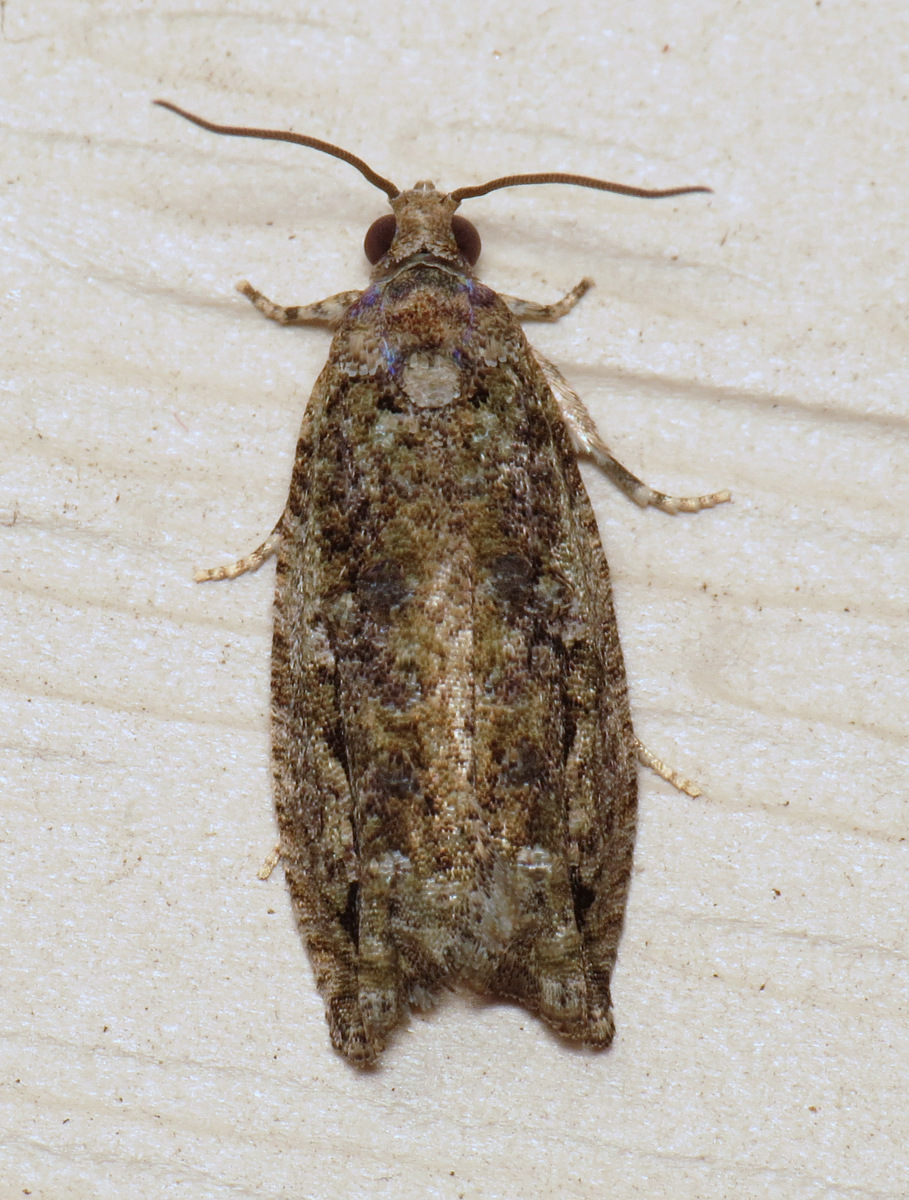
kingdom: Animalia
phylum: Arthropoda
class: Insecta
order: Lepidoptera
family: Tortricidae
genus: Proteoteras
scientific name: Proteoteras aesculana
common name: Maple twig borer moth
